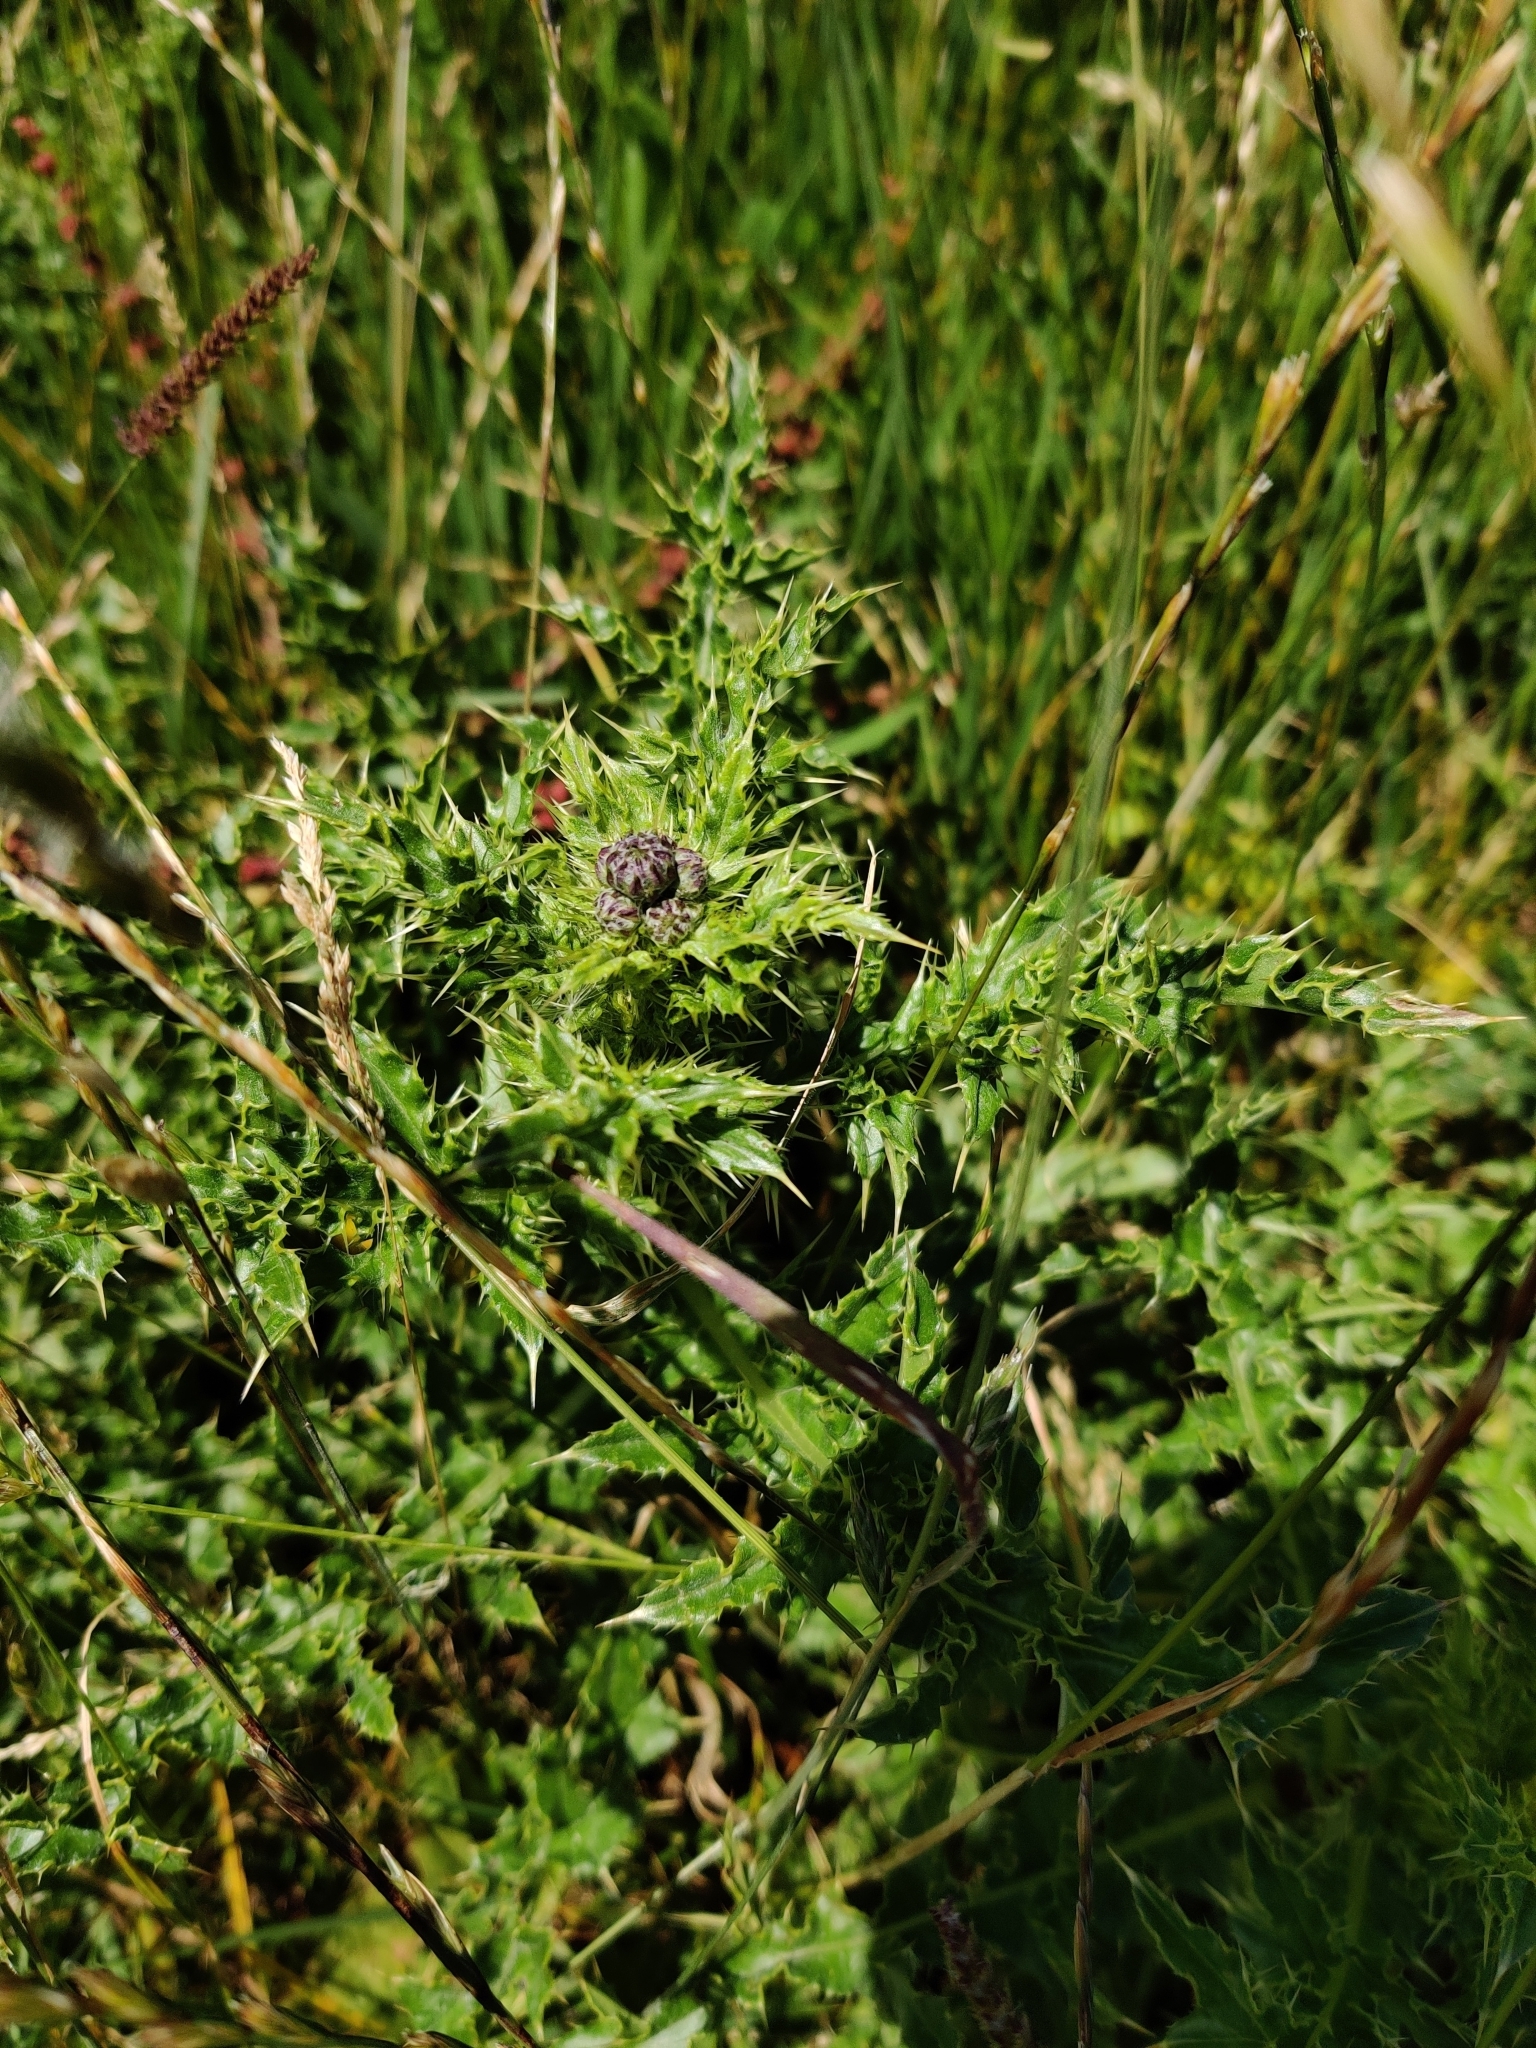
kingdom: Plantae
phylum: Tracheophyta
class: Magnoliopsida
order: Asterales
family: Asteraceae
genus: Cirsium
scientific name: Cirsium arvense
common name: Creeping thistle
